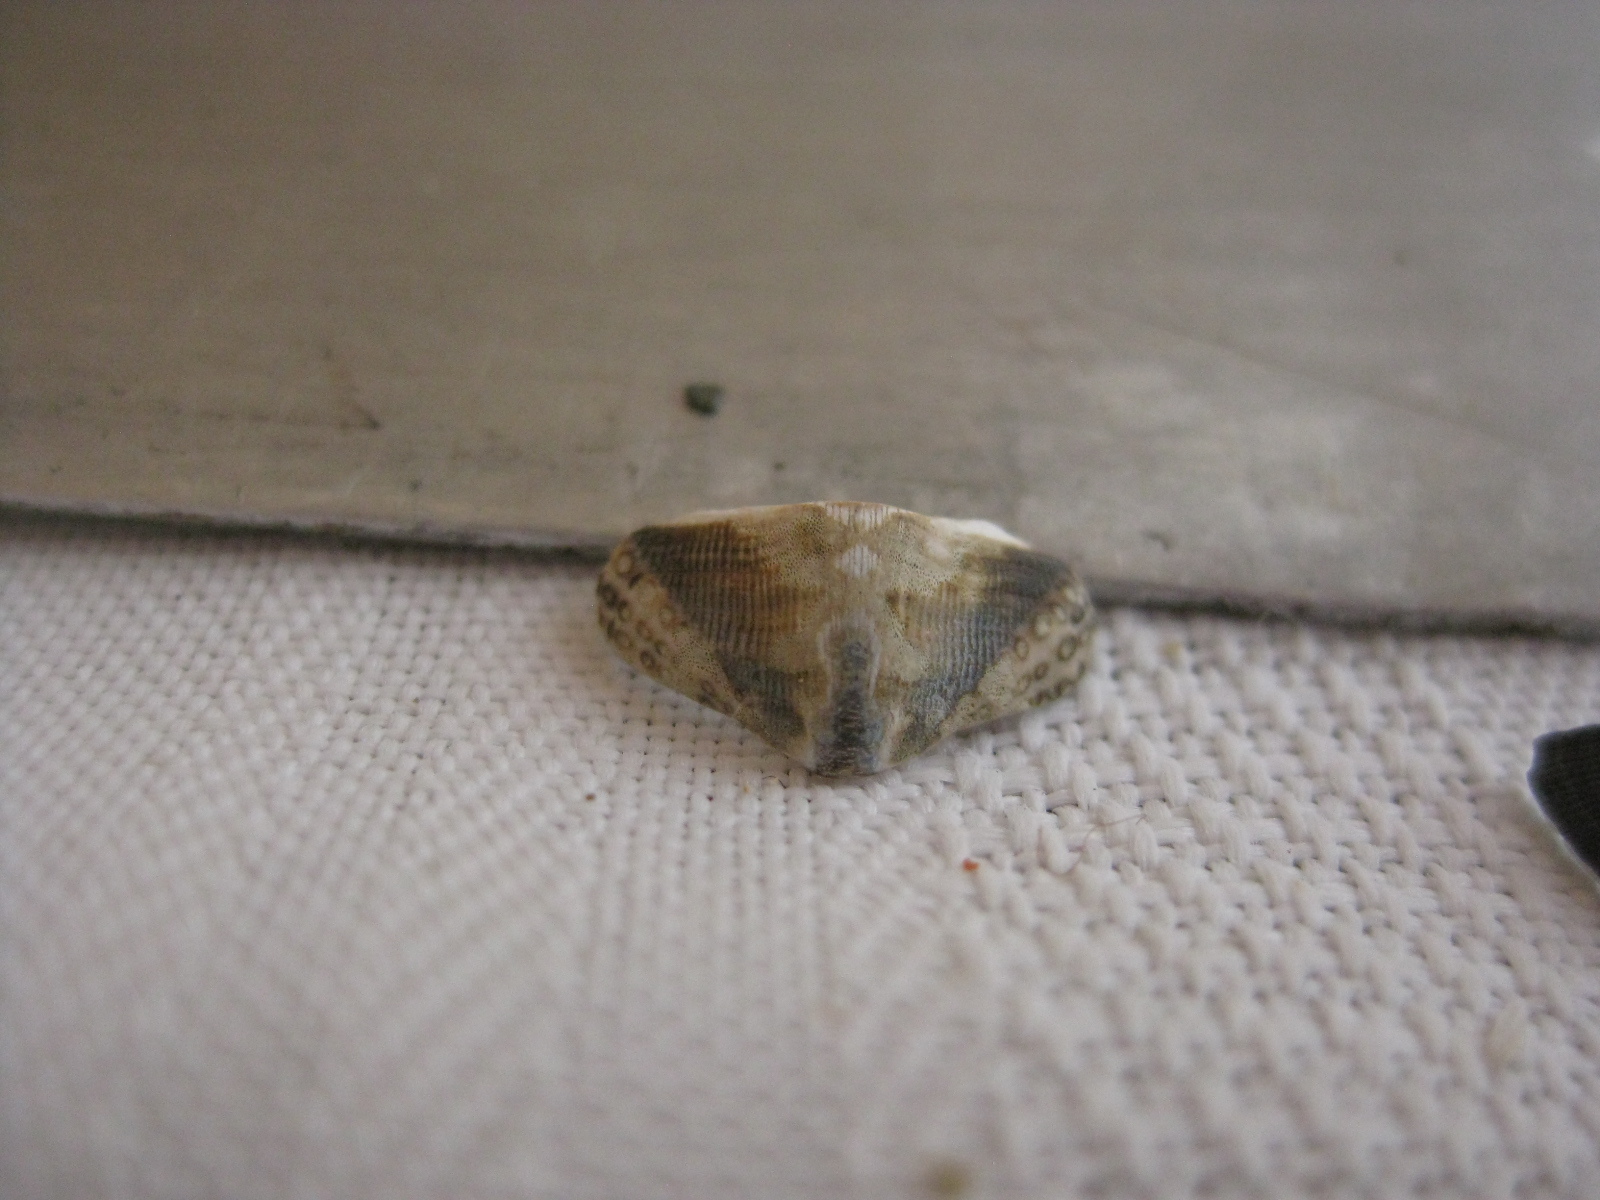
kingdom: Animalia
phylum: Mollusca
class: Polyplacophora
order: Chitonida
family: Chitonidae
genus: Sypharochiton
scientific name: Sypharochiton pelliserpentis
